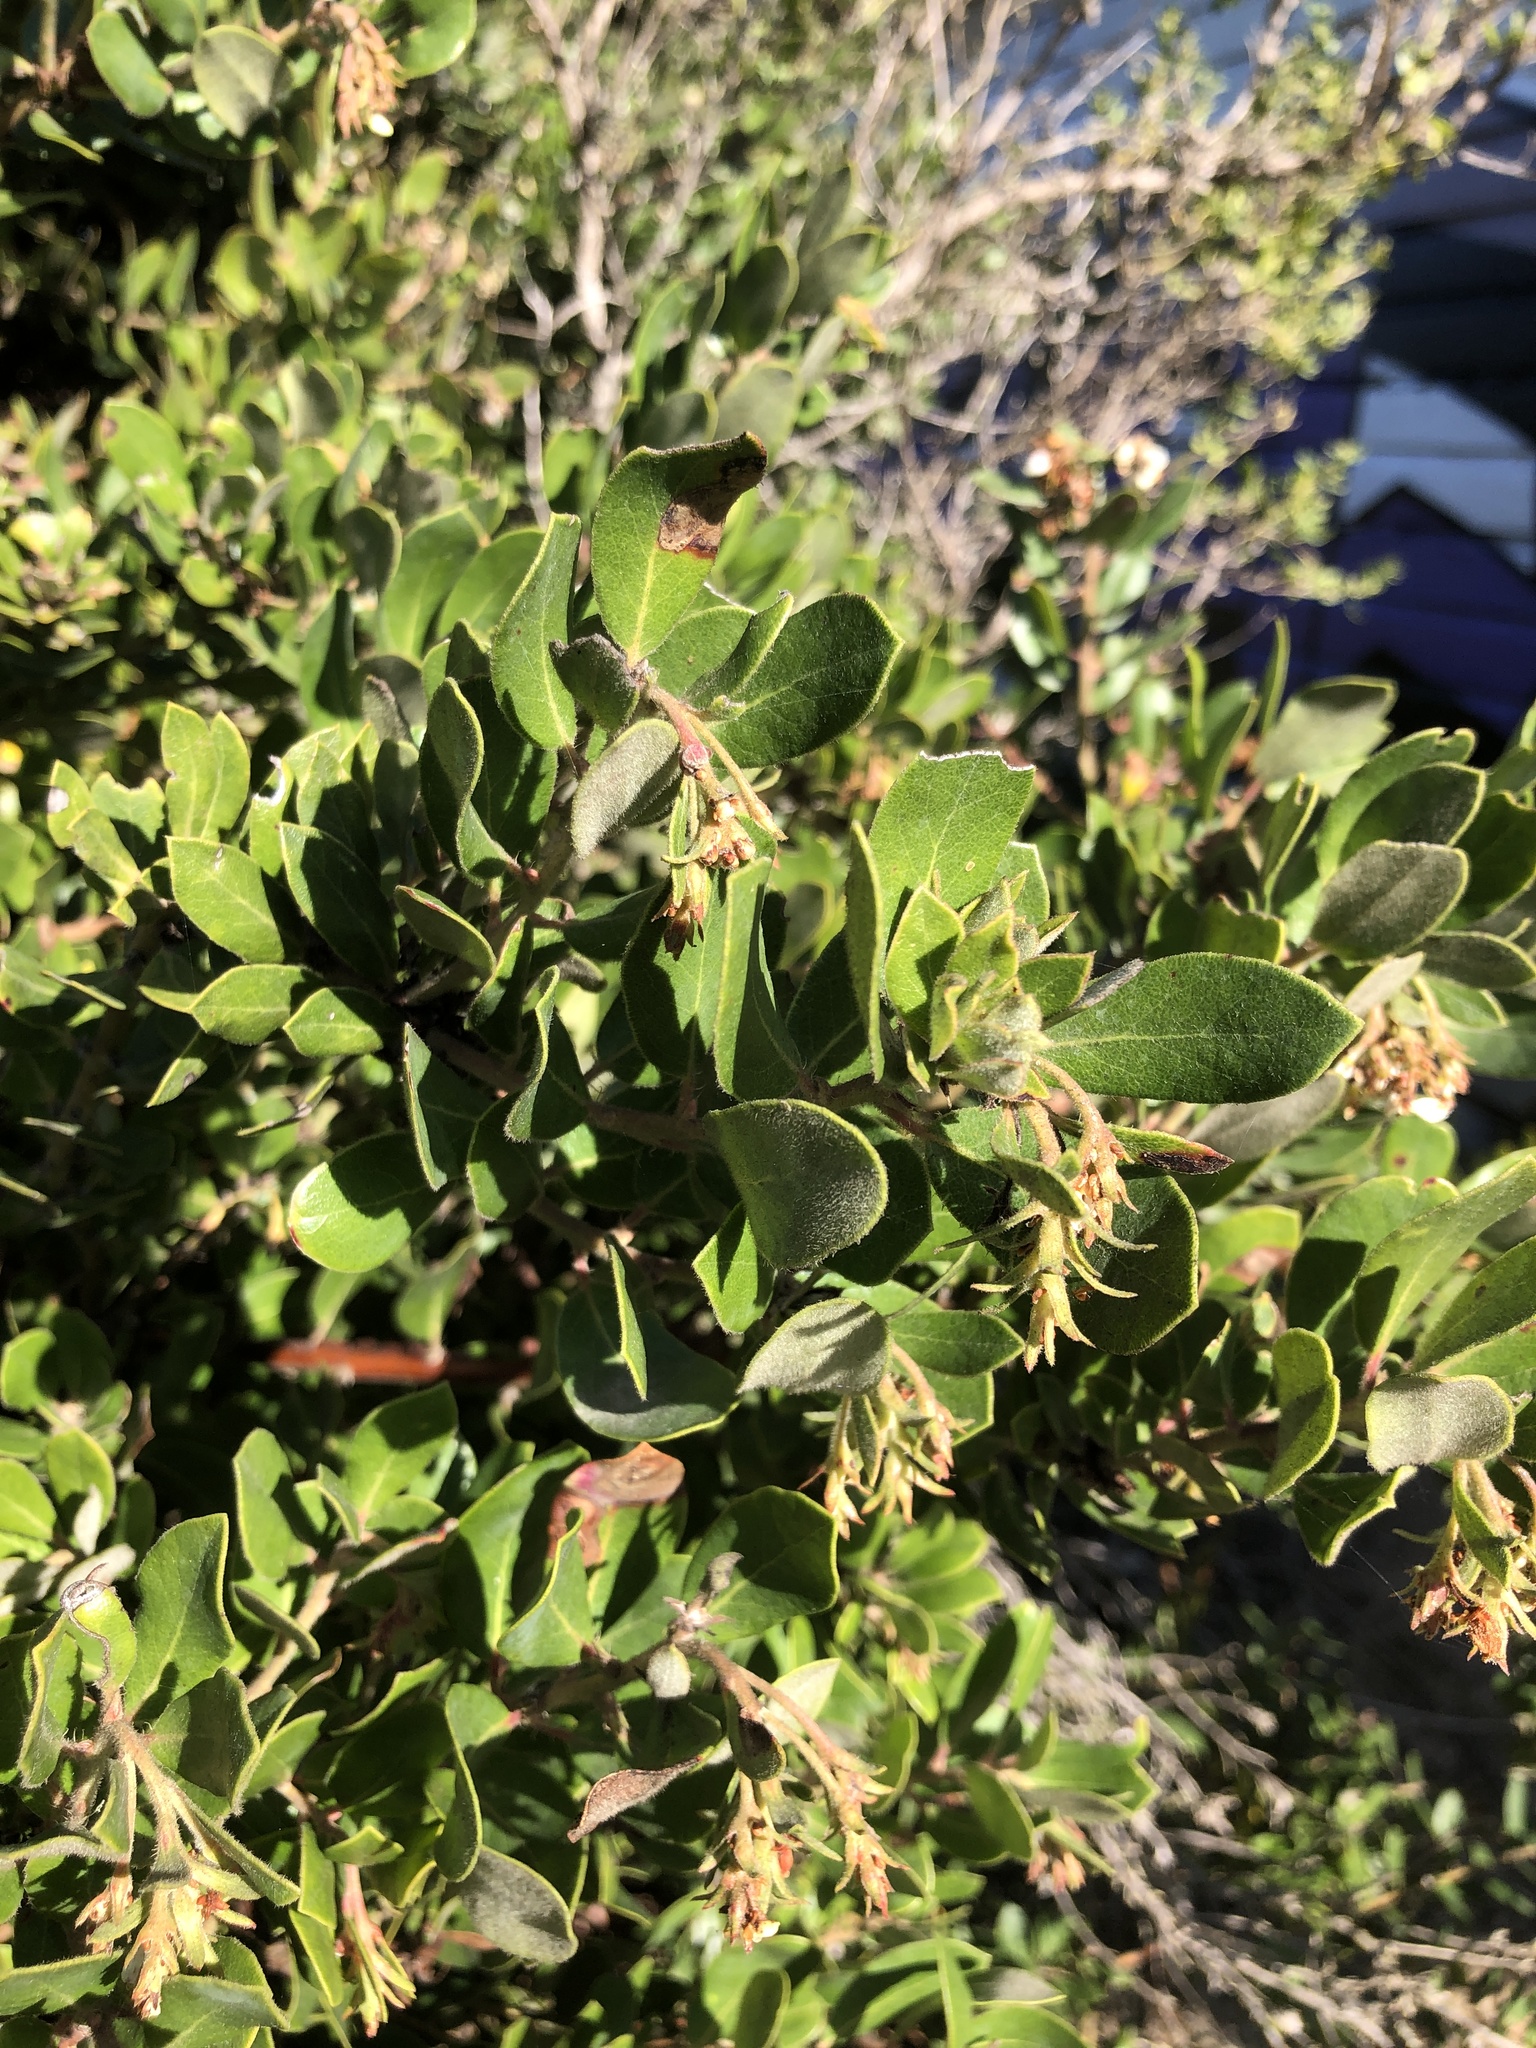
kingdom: Plantae
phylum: Tracheophyta
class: Magnoliopsida
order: Ericales
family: Ericaceae
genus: Arctostaphylos
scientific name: Arctostaphylos tomentosa
